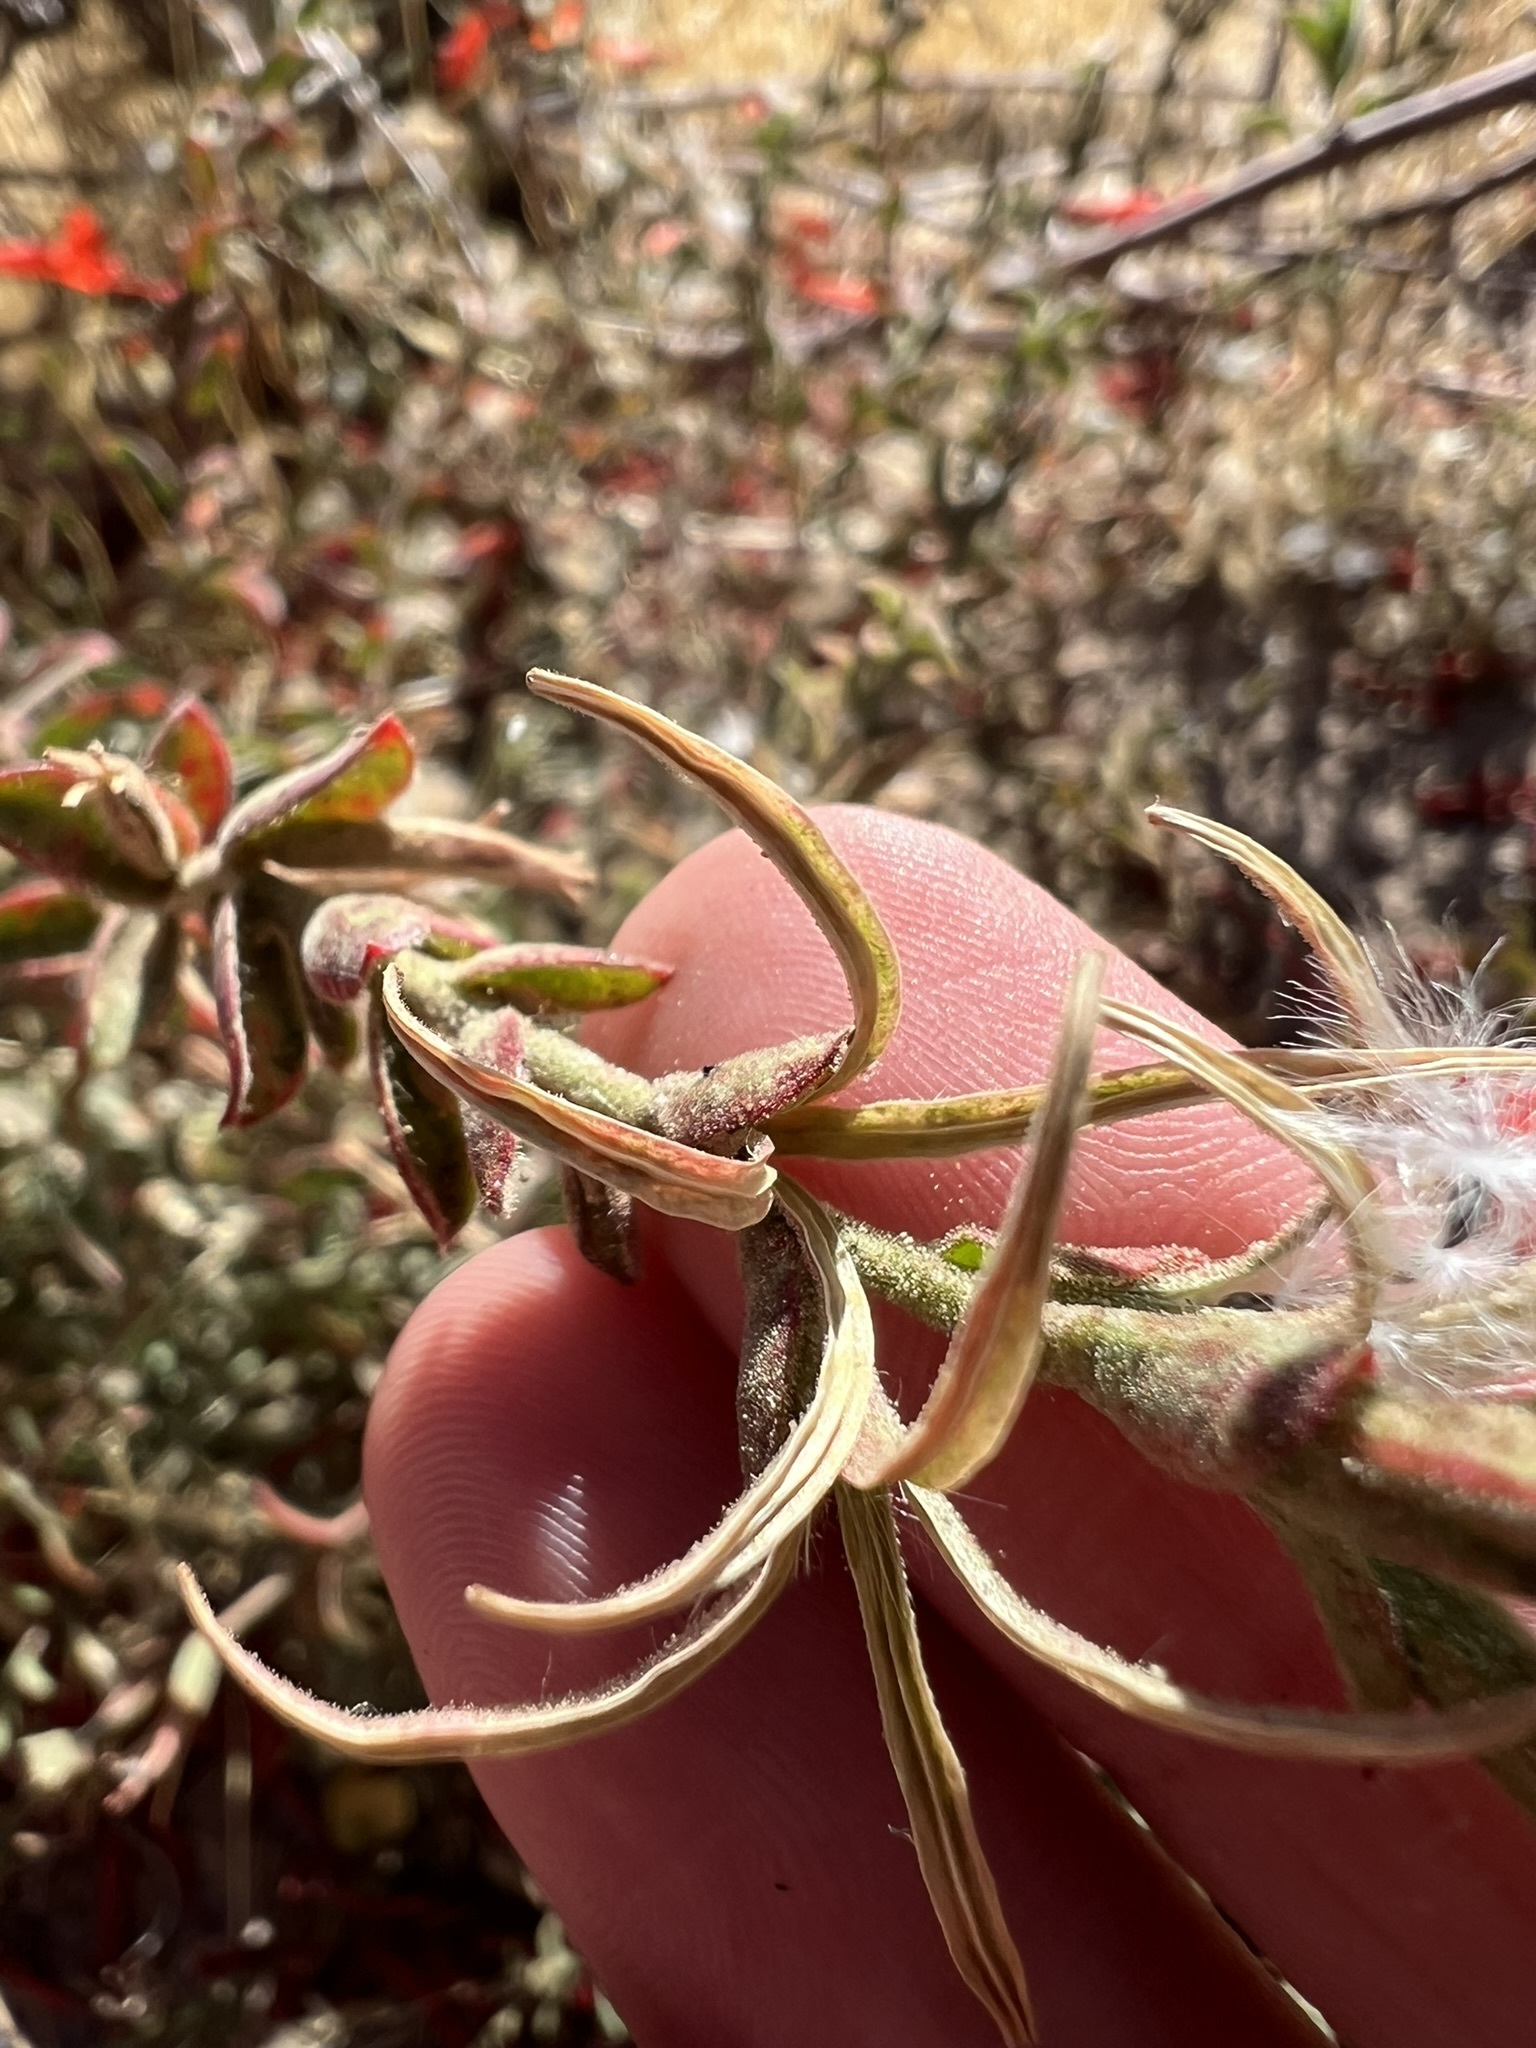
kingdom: Plantae
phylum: Tracheophyta
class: Magnoliopsida
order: Myrtales
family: Onagraceae
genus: Epilobium
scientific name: Epilobium canum
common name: California-fuchsia
